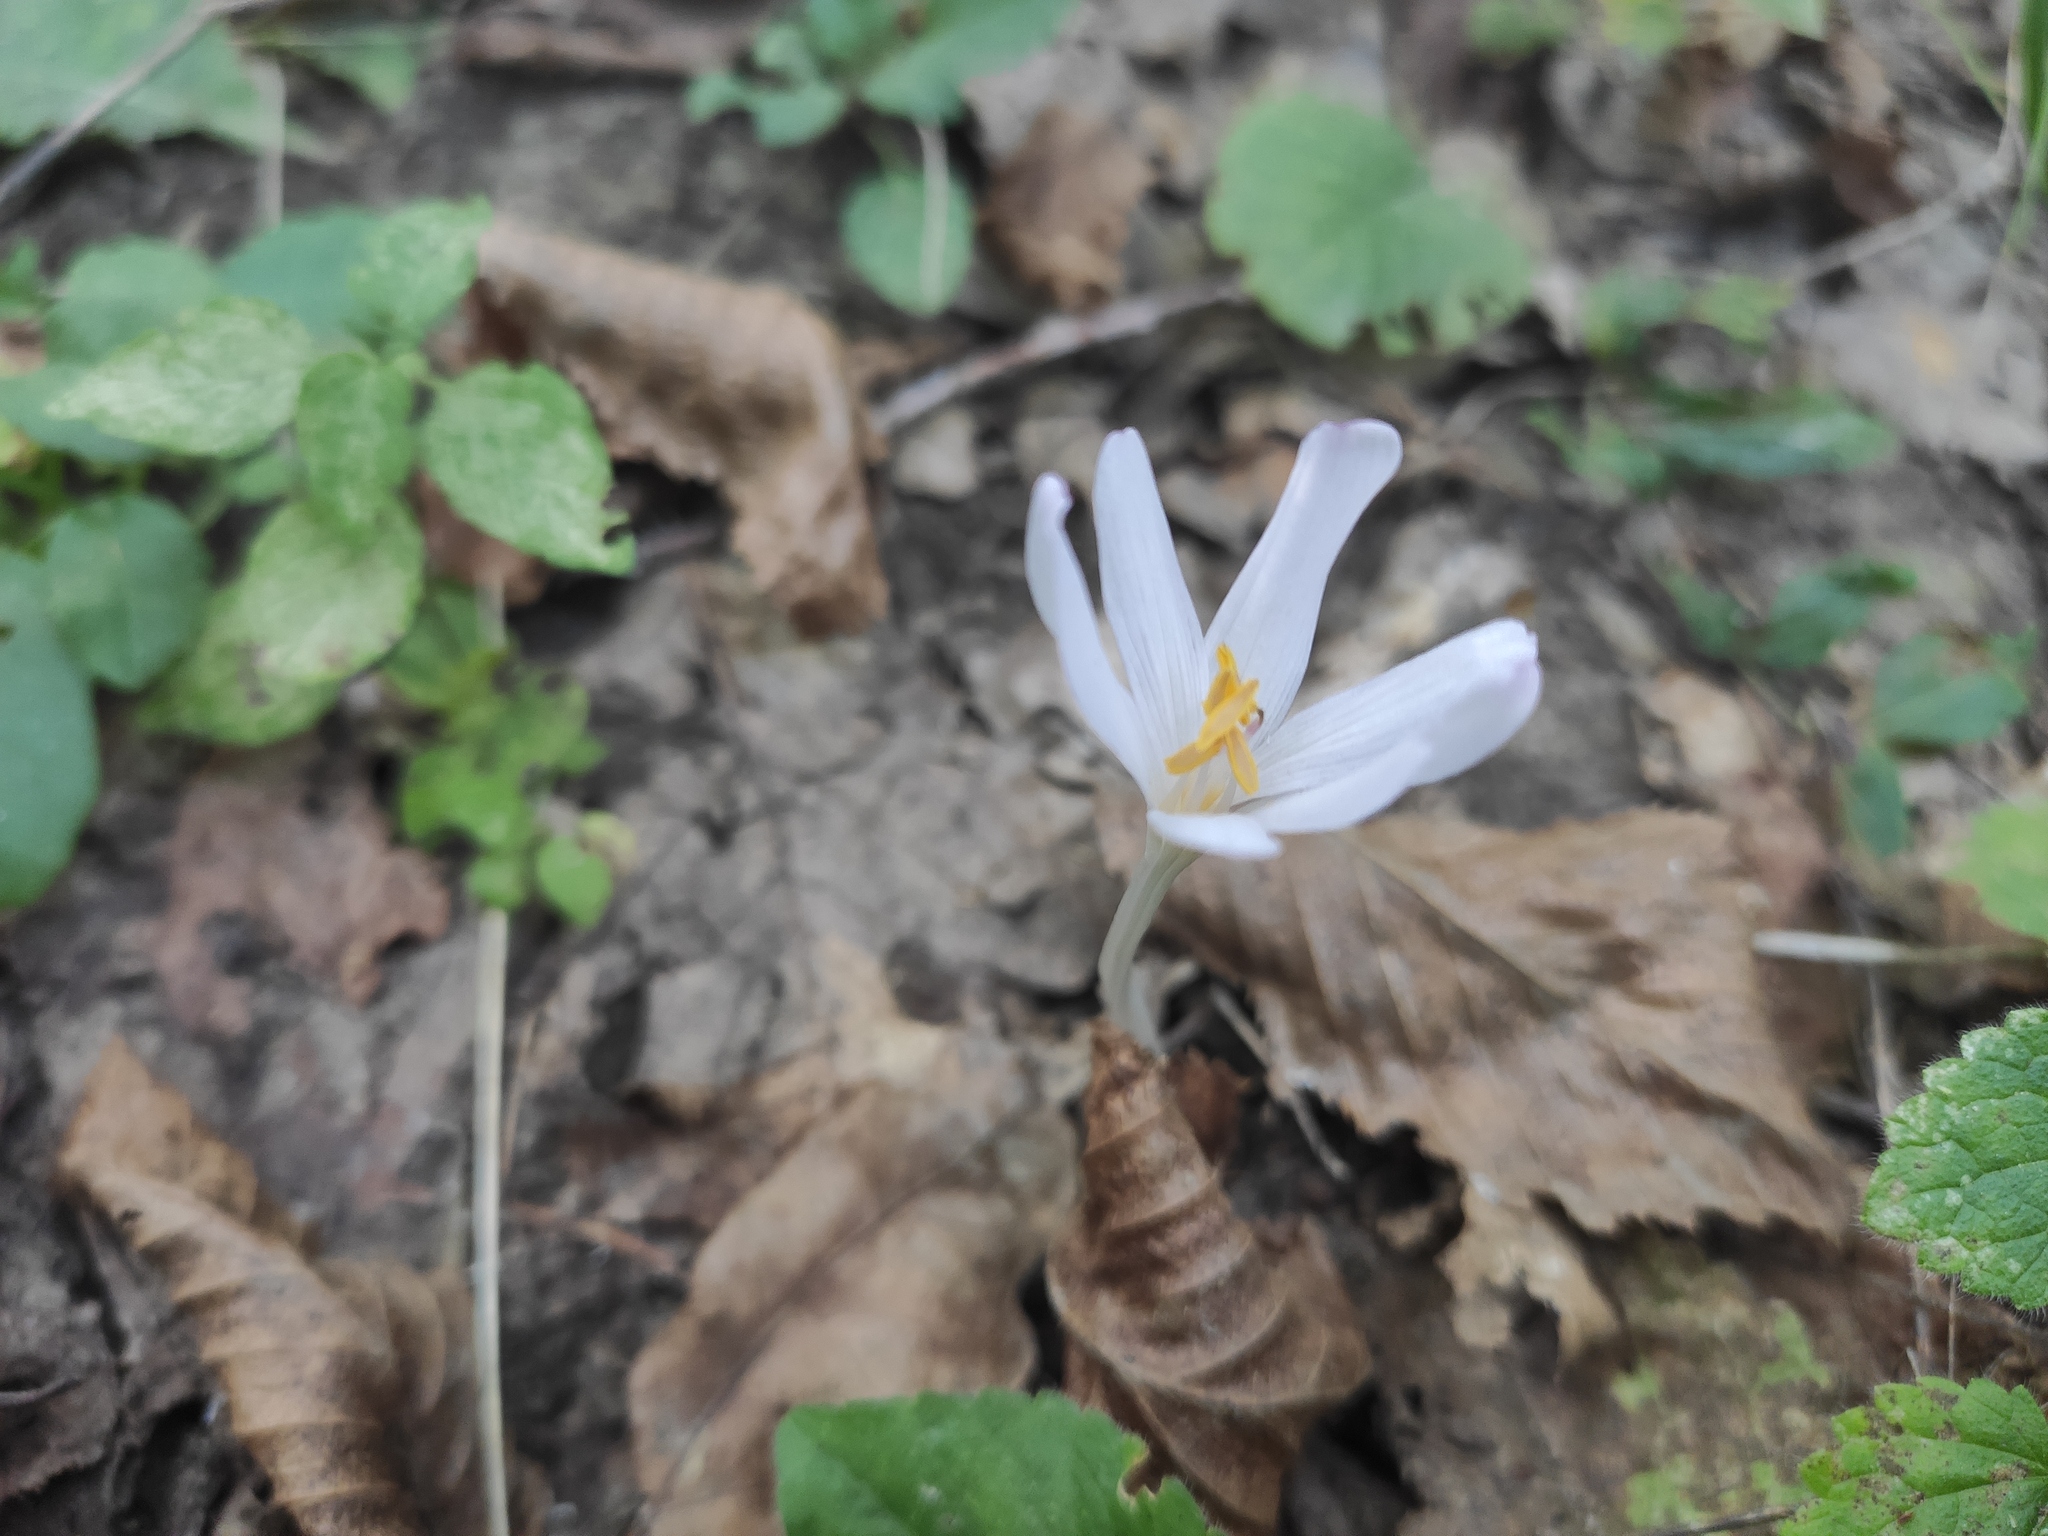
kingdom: Plantae
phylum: Tracheophyta
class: Liliopsida
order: Liliales
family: Colchicaceae
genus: Colchicum
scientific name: Colchicum umbrosum
